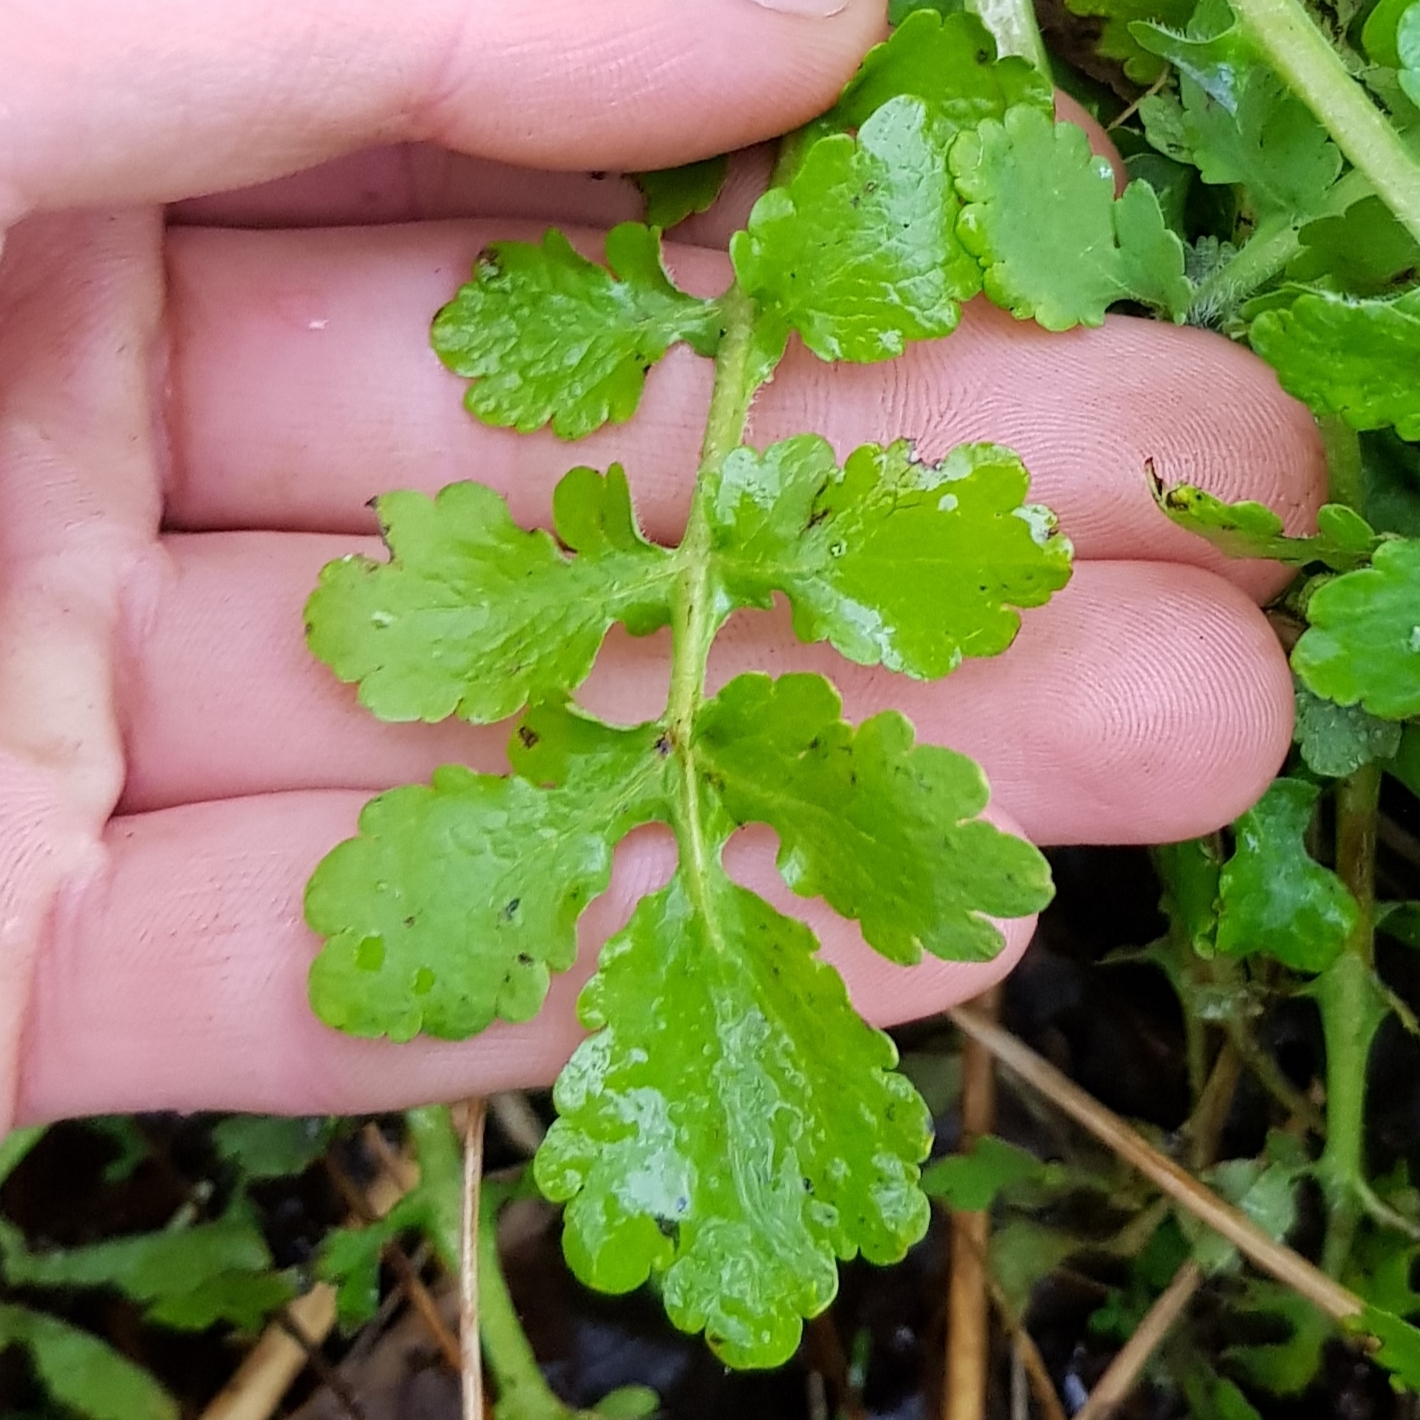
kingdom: Plantae
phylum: Tracheophyta
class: Magnoliopsida
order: Ranunculales
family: Papaveraceae
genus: Chelidonium
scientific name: Chelidonium majus
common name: Greater celandine
